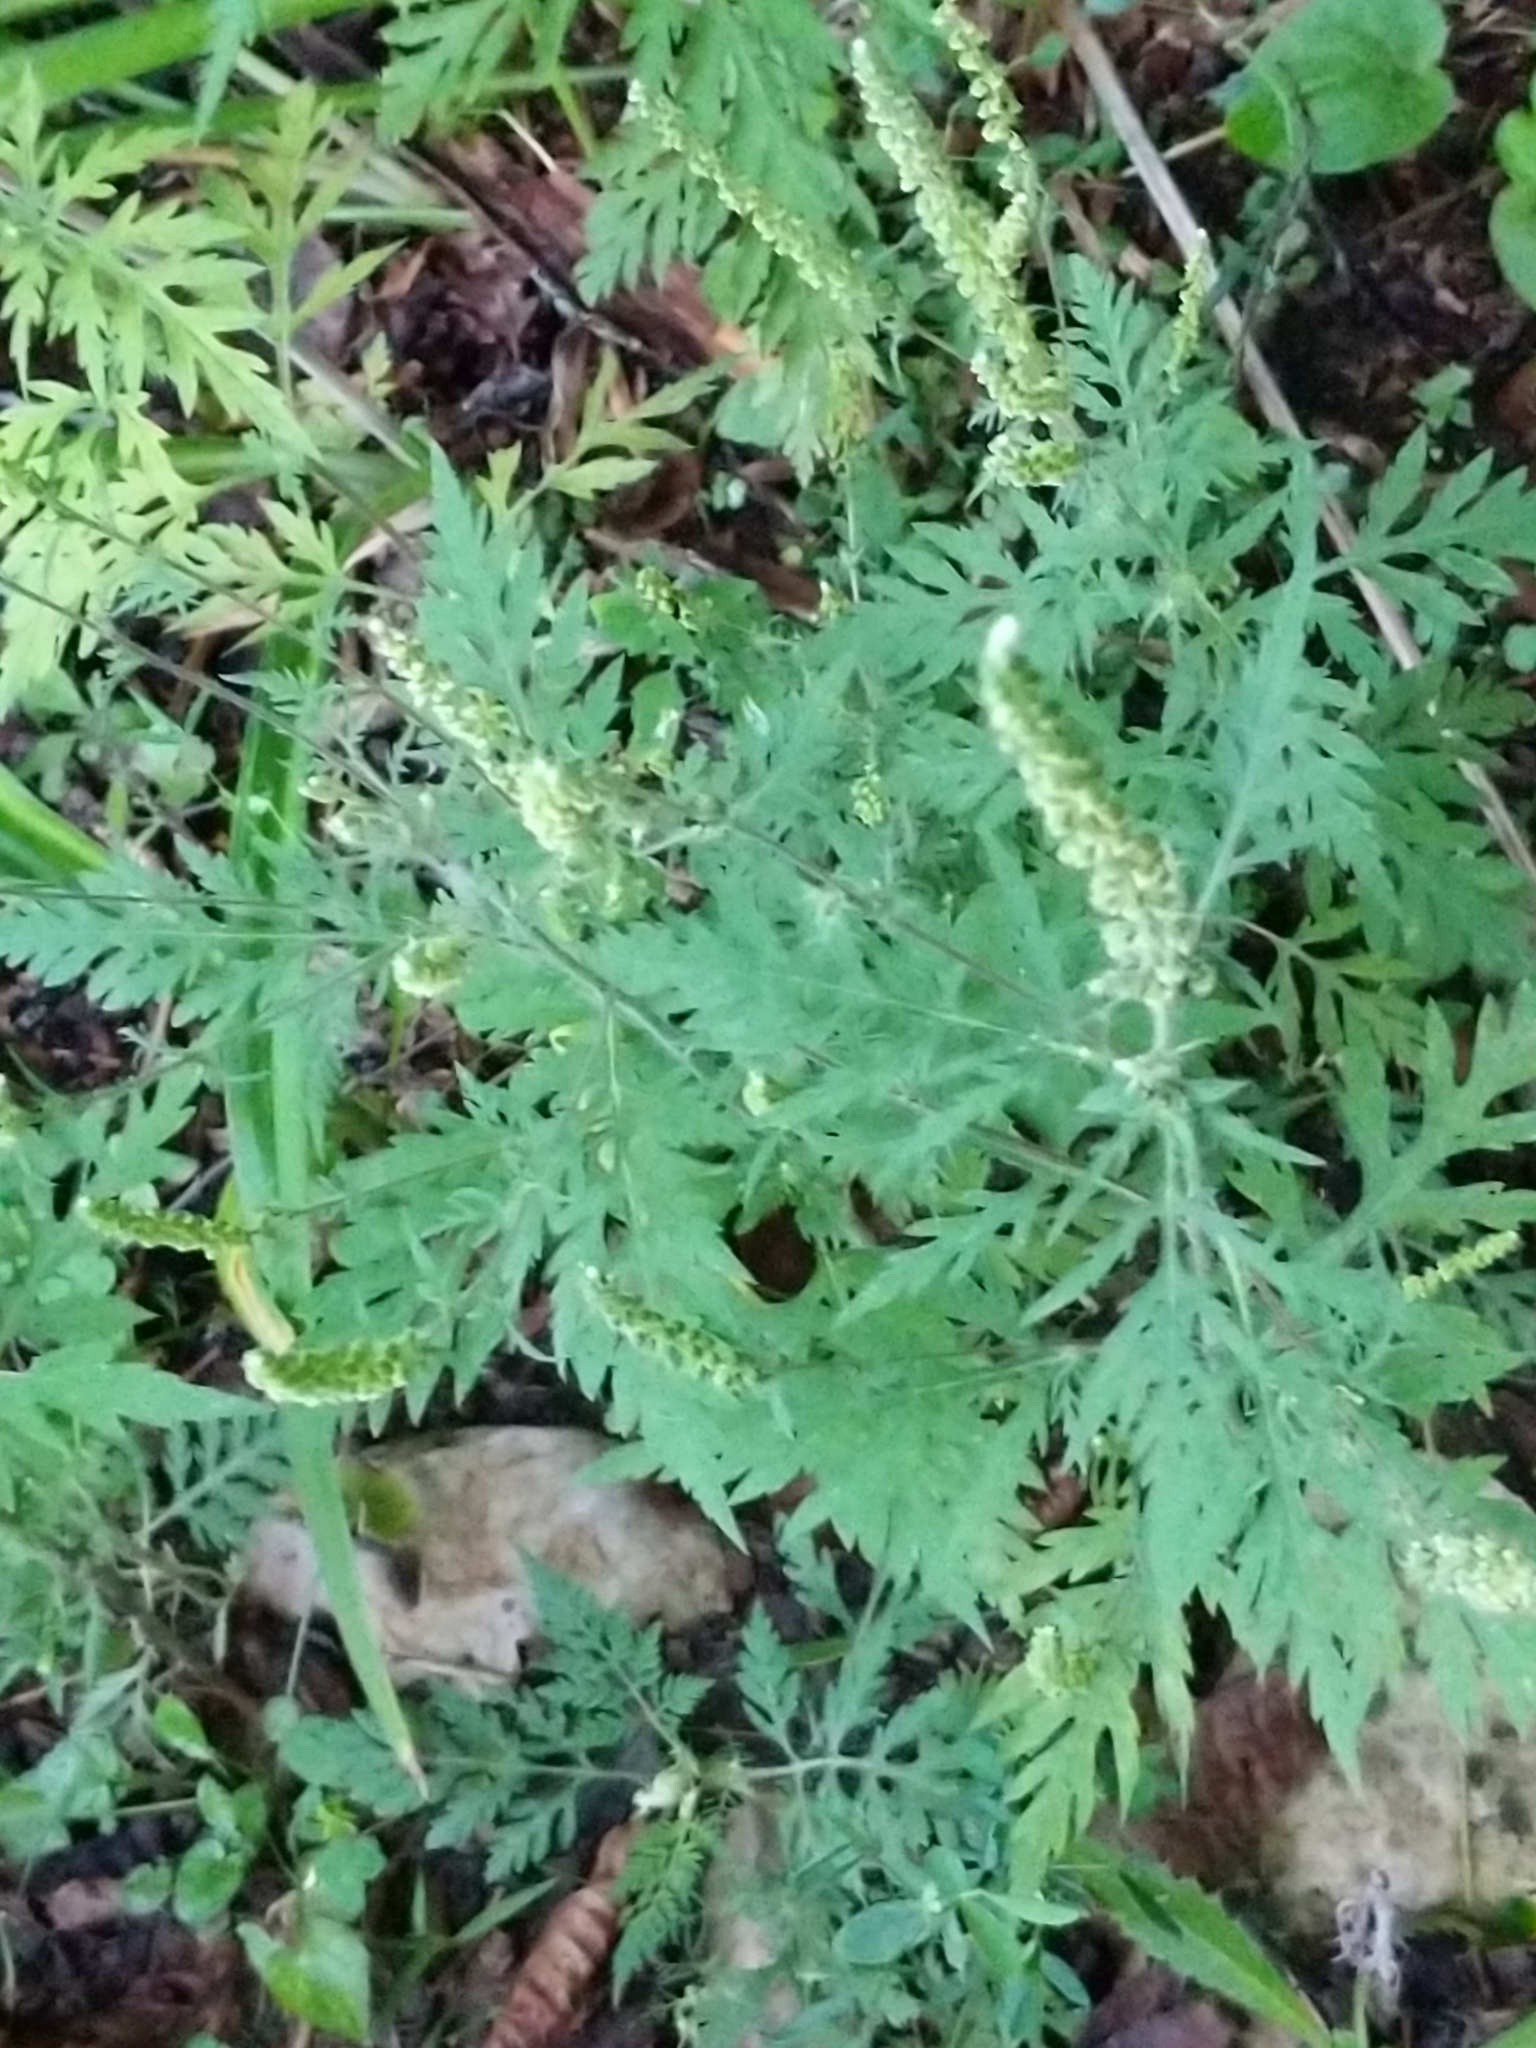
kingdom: Plantae
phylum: Tracheophyta
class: Magnoliopsida
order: Asterales
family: Asteraceae
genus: Ambrosia
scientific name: Ambrosia artemisiifolia
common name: Annual ragweed
